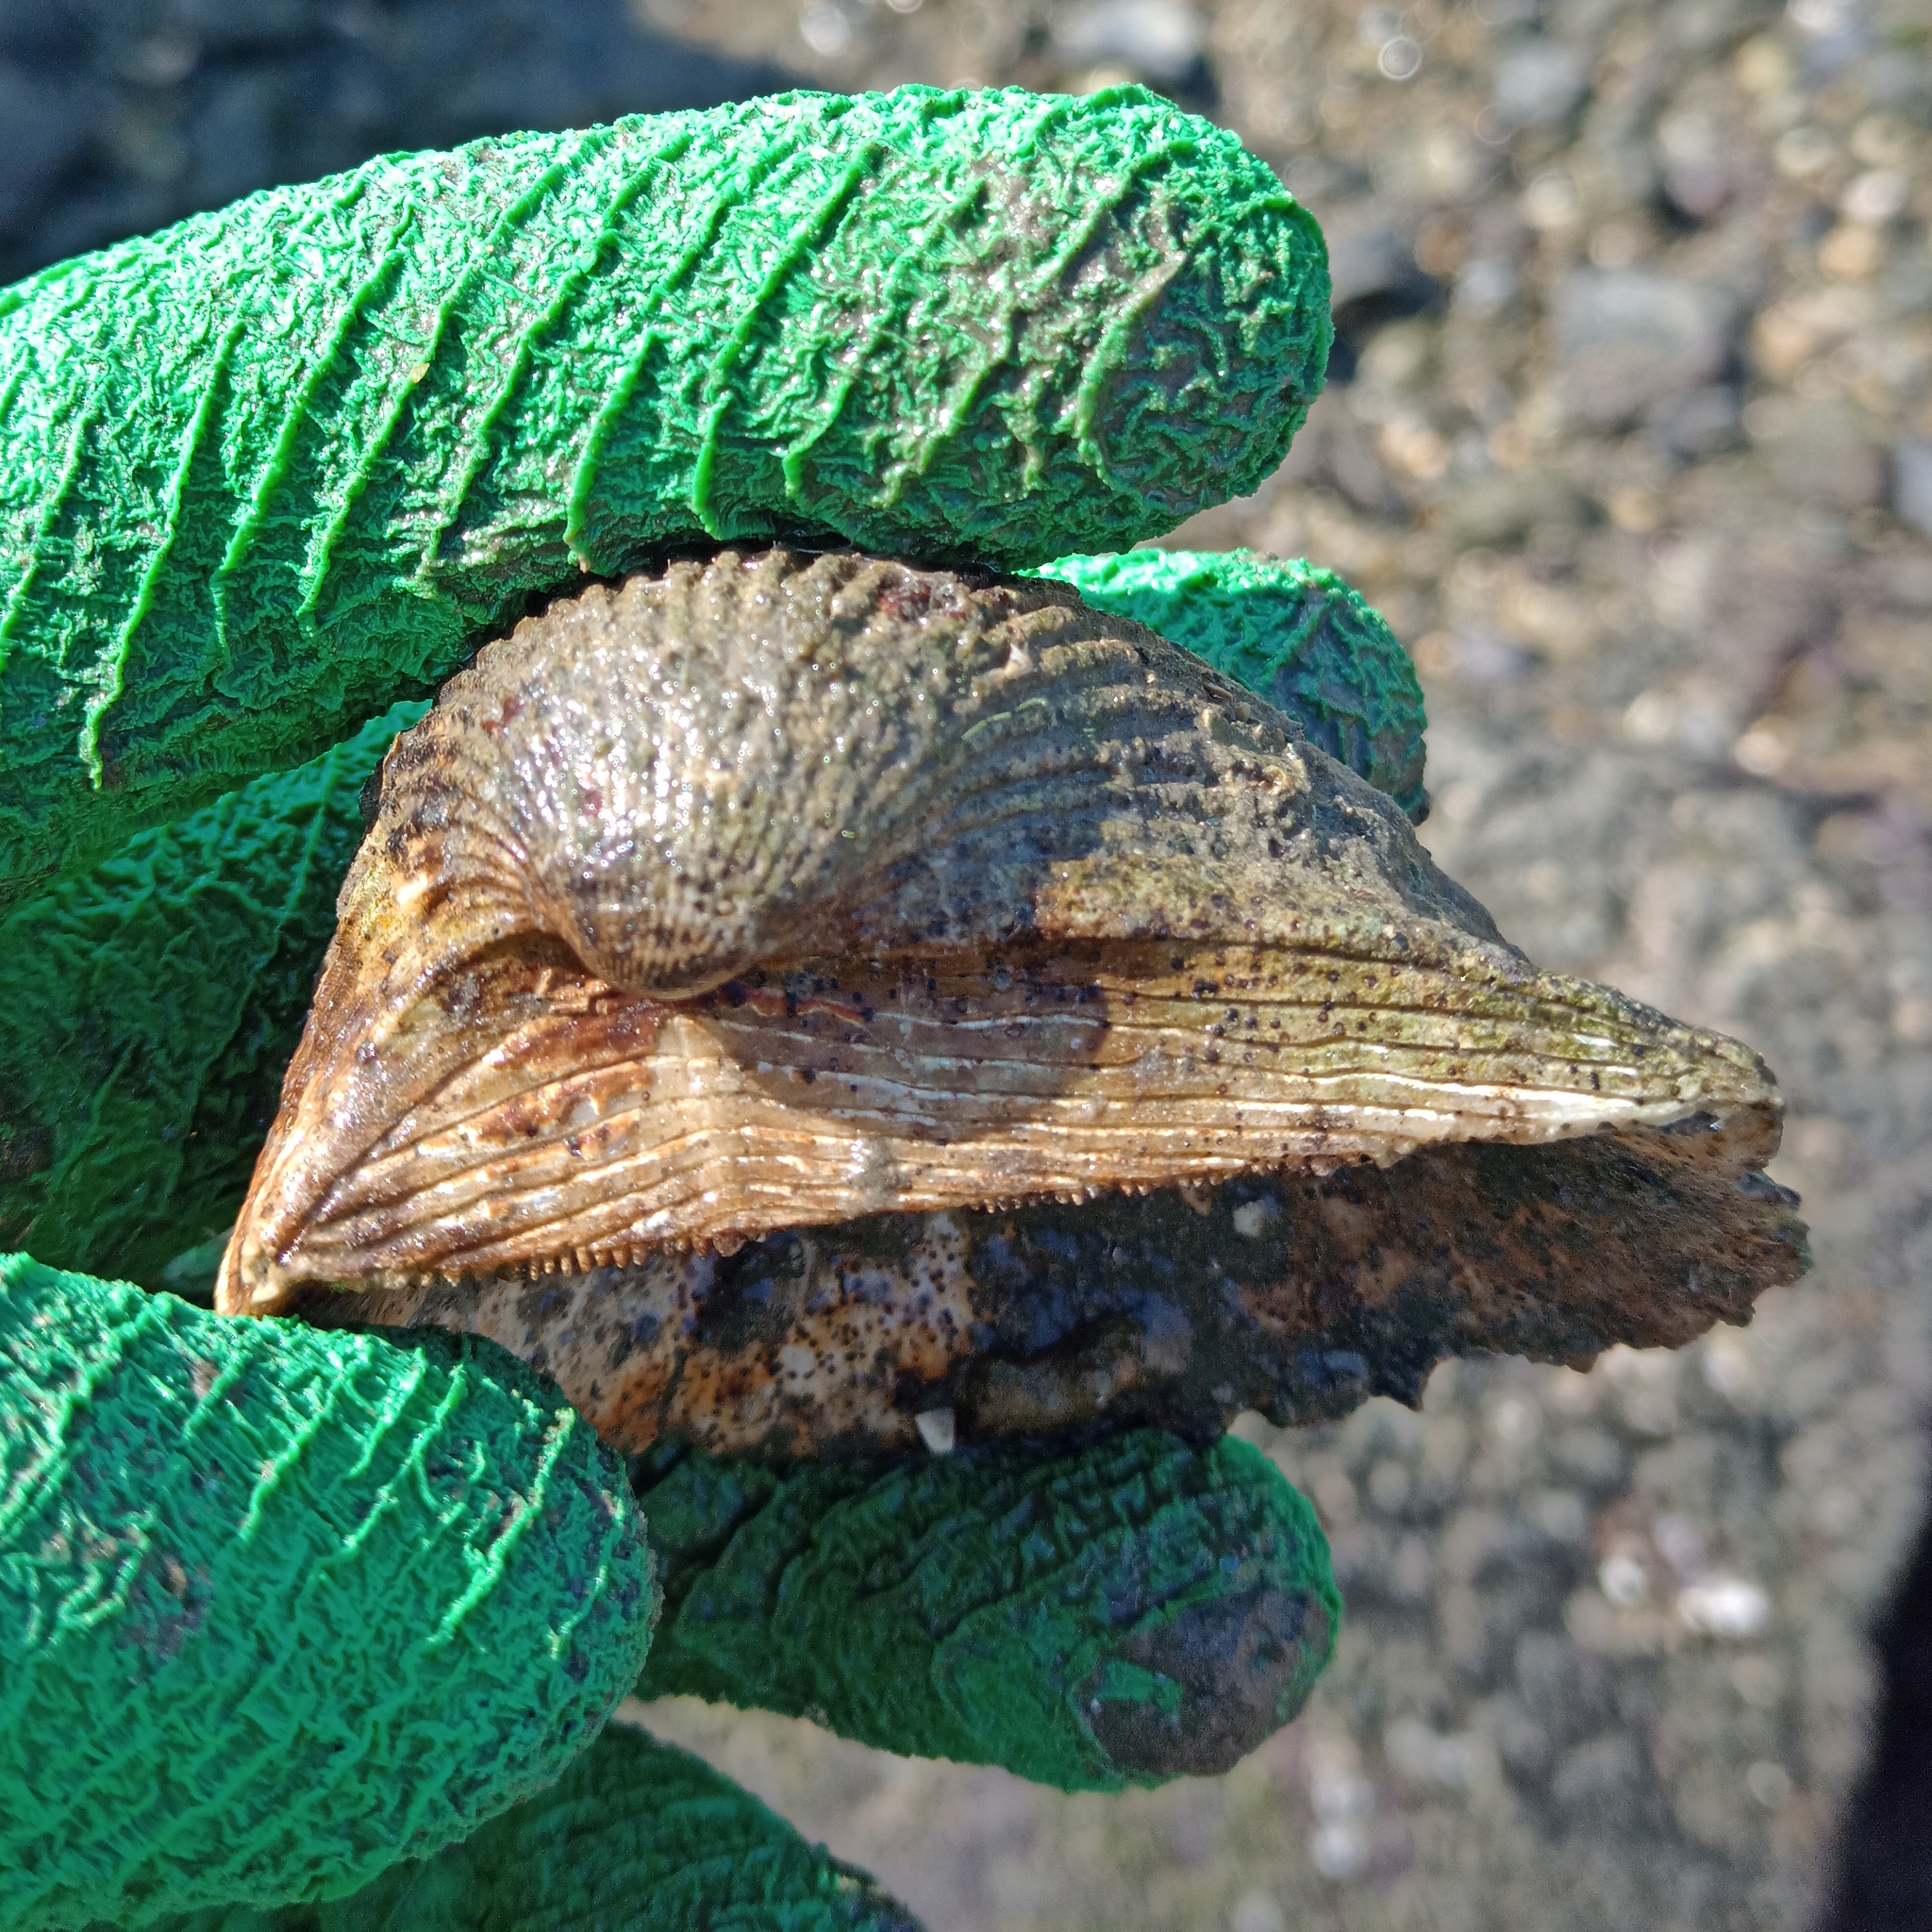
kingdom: Animalia
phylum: Mollusca
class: Bivalvia
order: Arcida
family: Arcidae
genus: Anadara
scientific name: Anadara notabilis
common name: Eared ark
